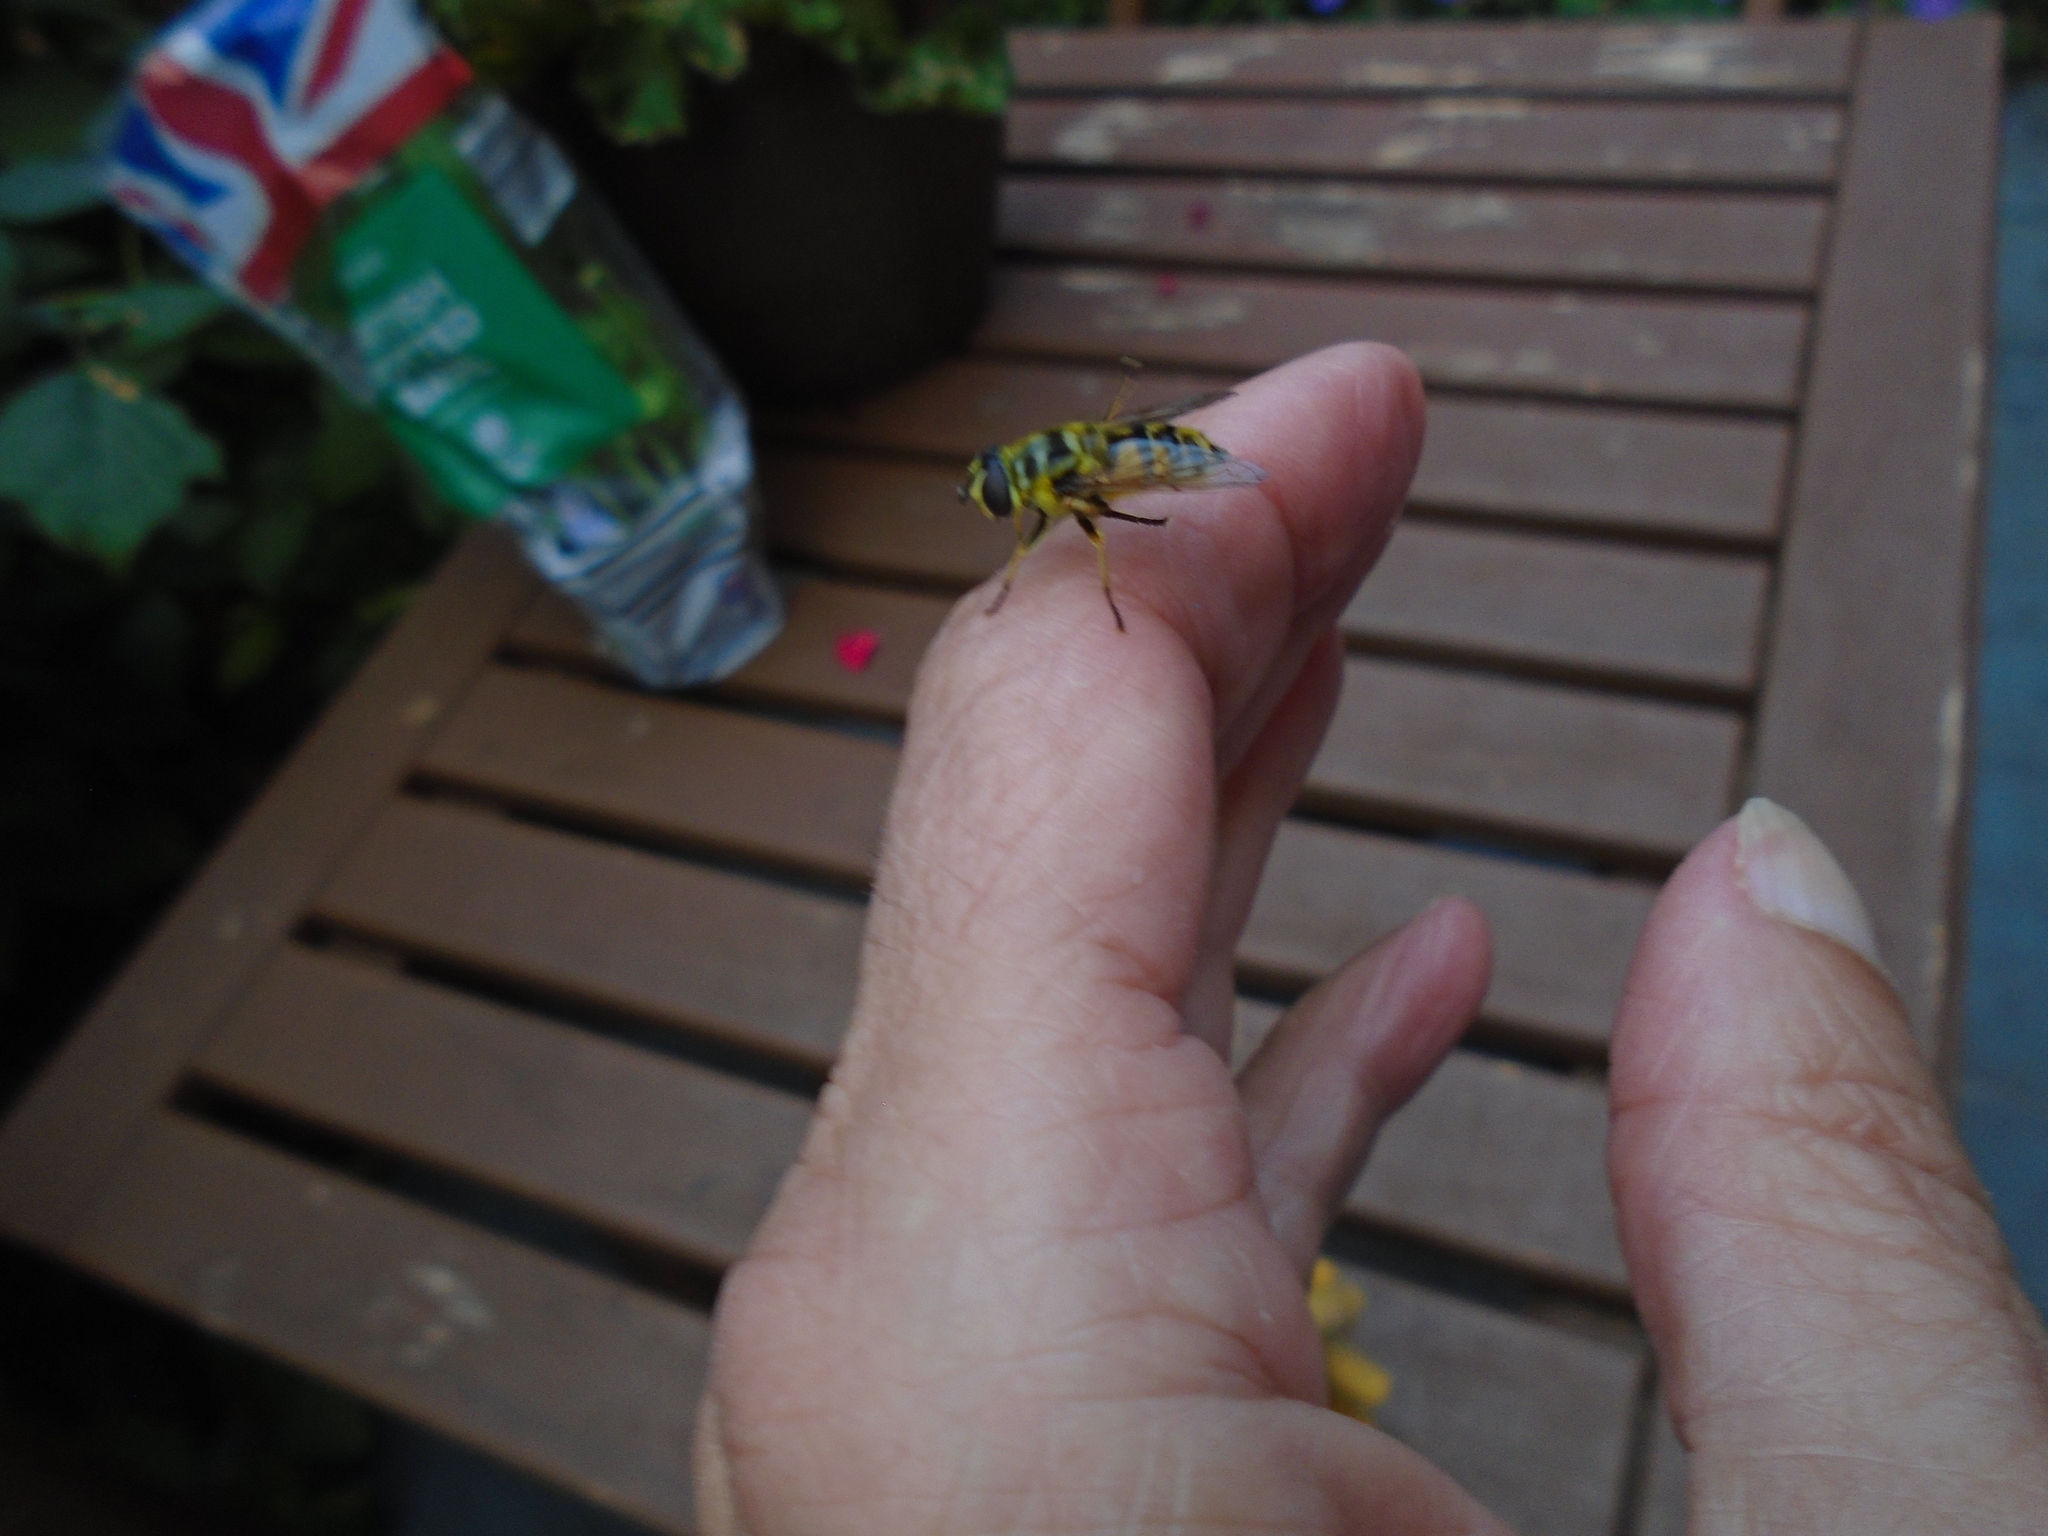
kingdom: Animalia
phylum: Arthropoda
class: Insecta
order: Diptera
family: Syrphidae
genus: Myathropa
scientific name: Myathropa florea
